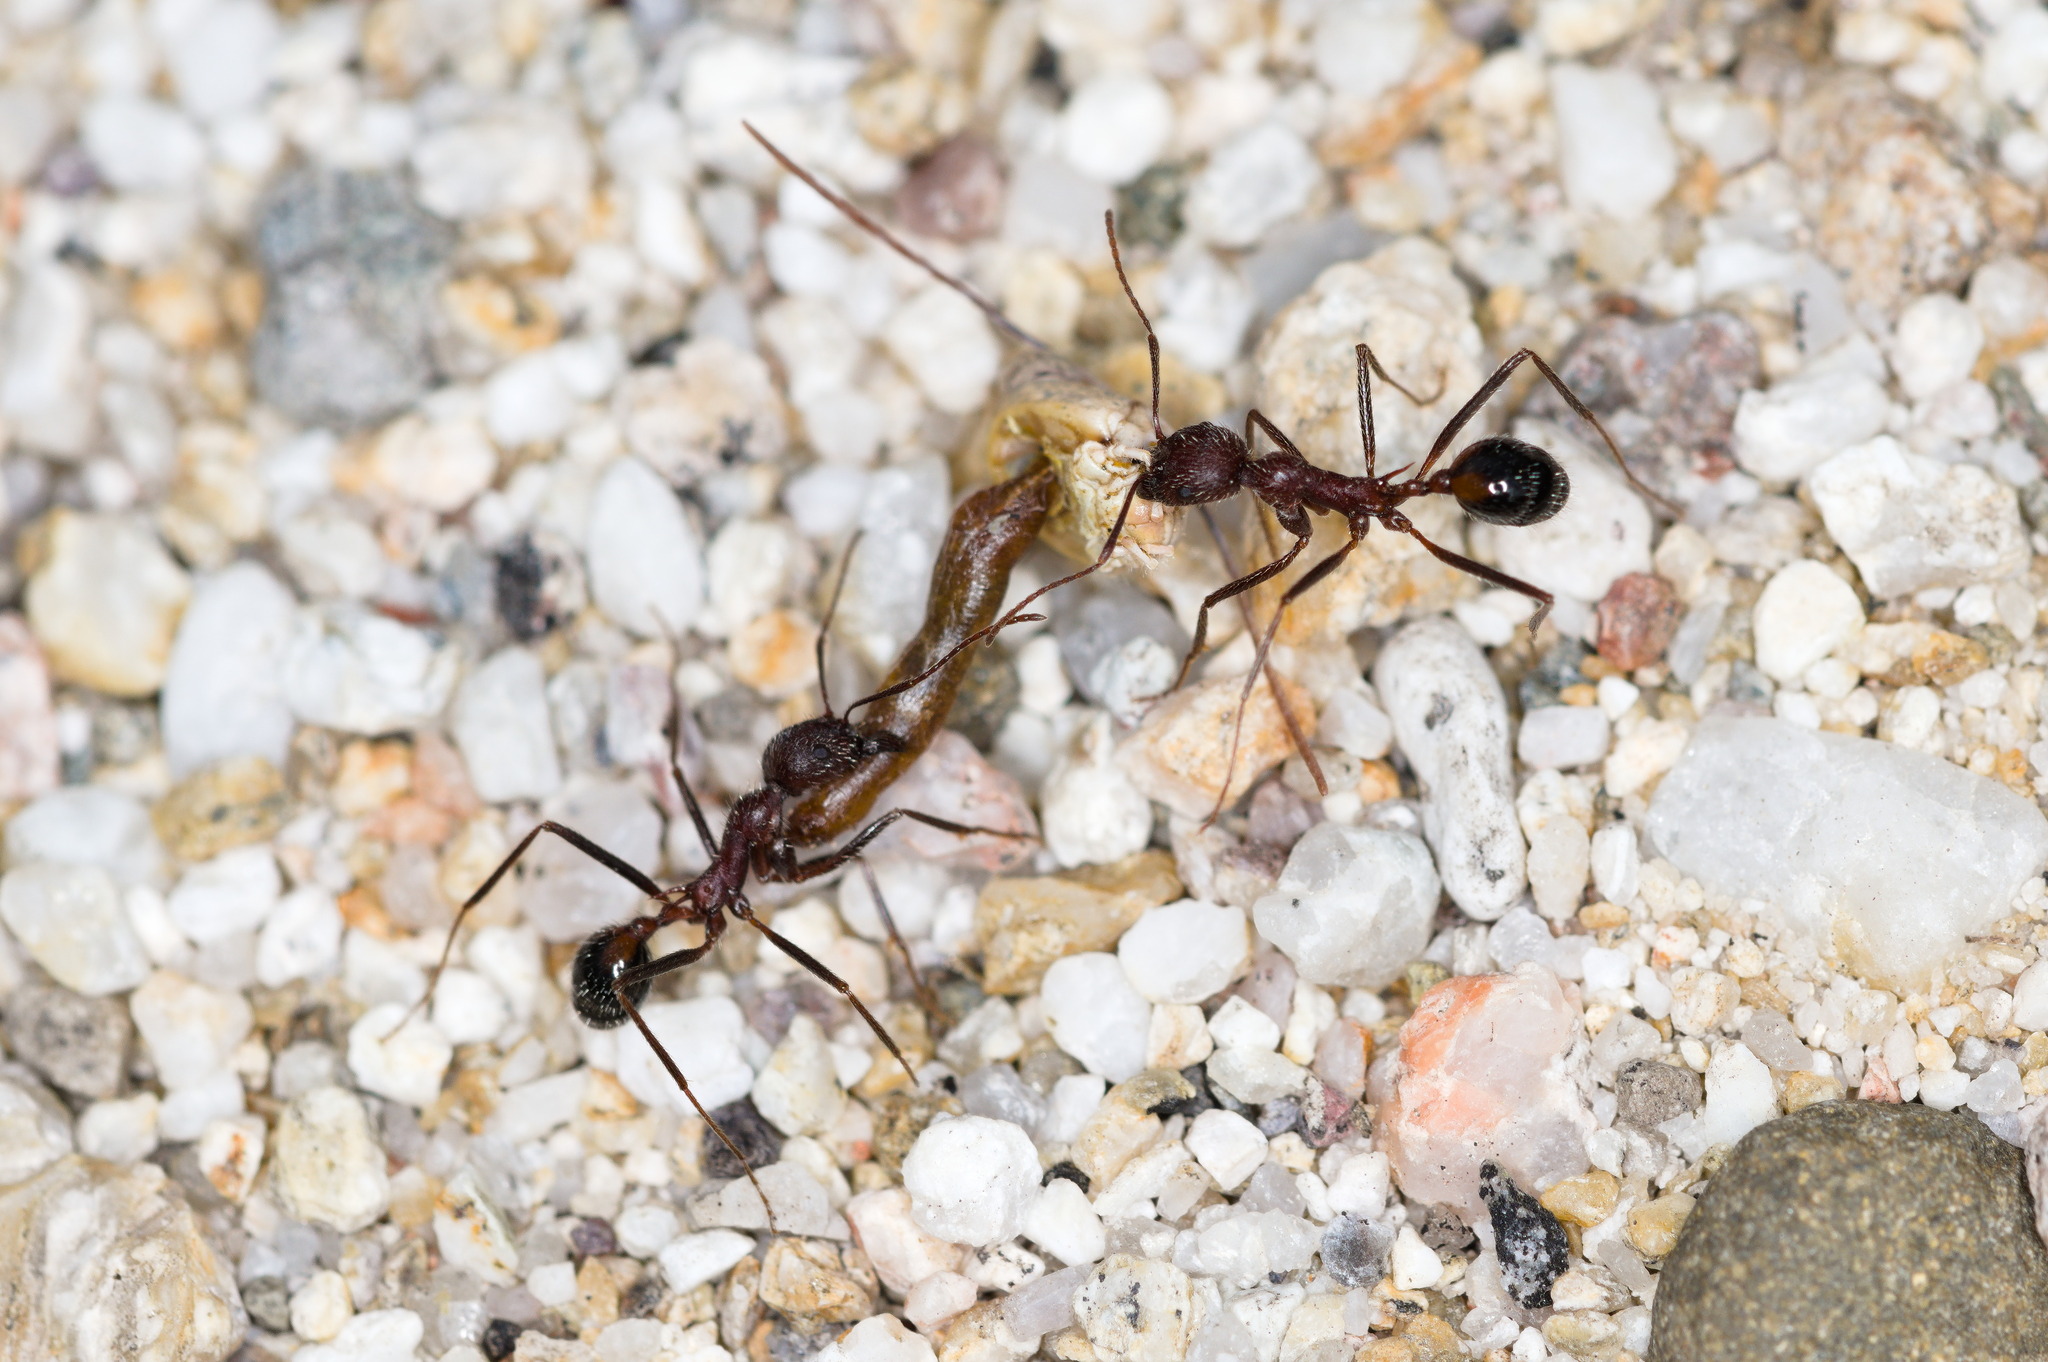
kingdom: Animalia
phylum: Arthropoda
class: Insecta
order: Hymenoptera
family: Formicidae
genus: Novomessor
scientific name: Novomessor albisetosa
